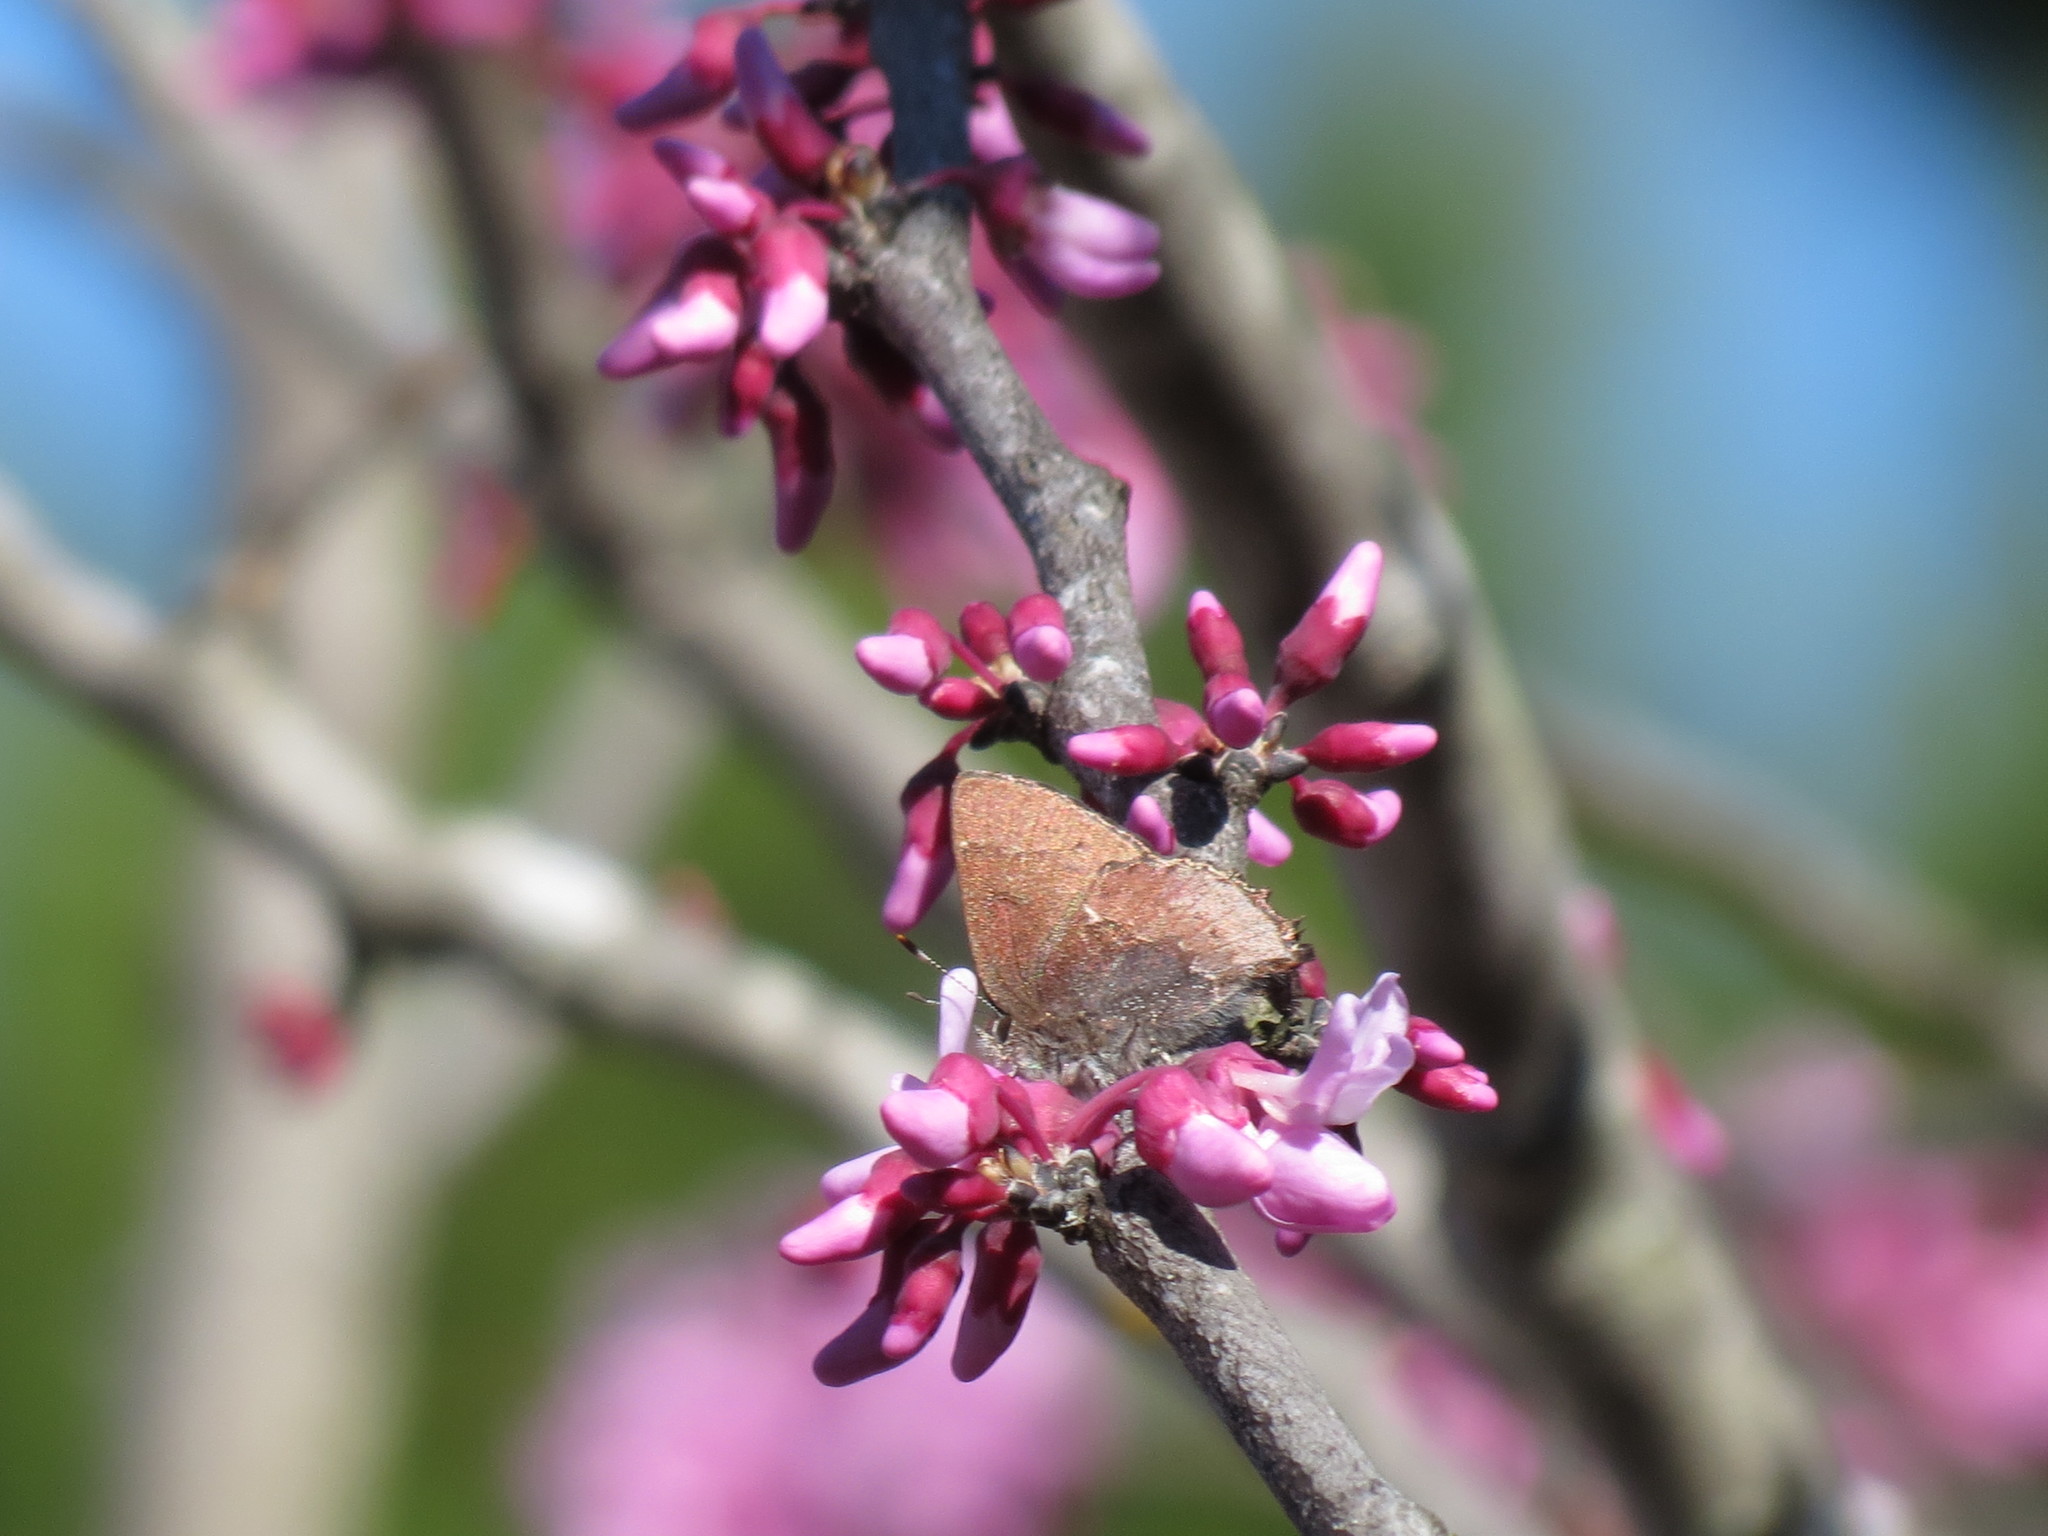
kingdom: Animalia
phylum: Arthropoda
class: Insecta
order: Lepidoptera
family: Lycaenidae
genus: Incisalia
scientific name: Incisalia henrici
